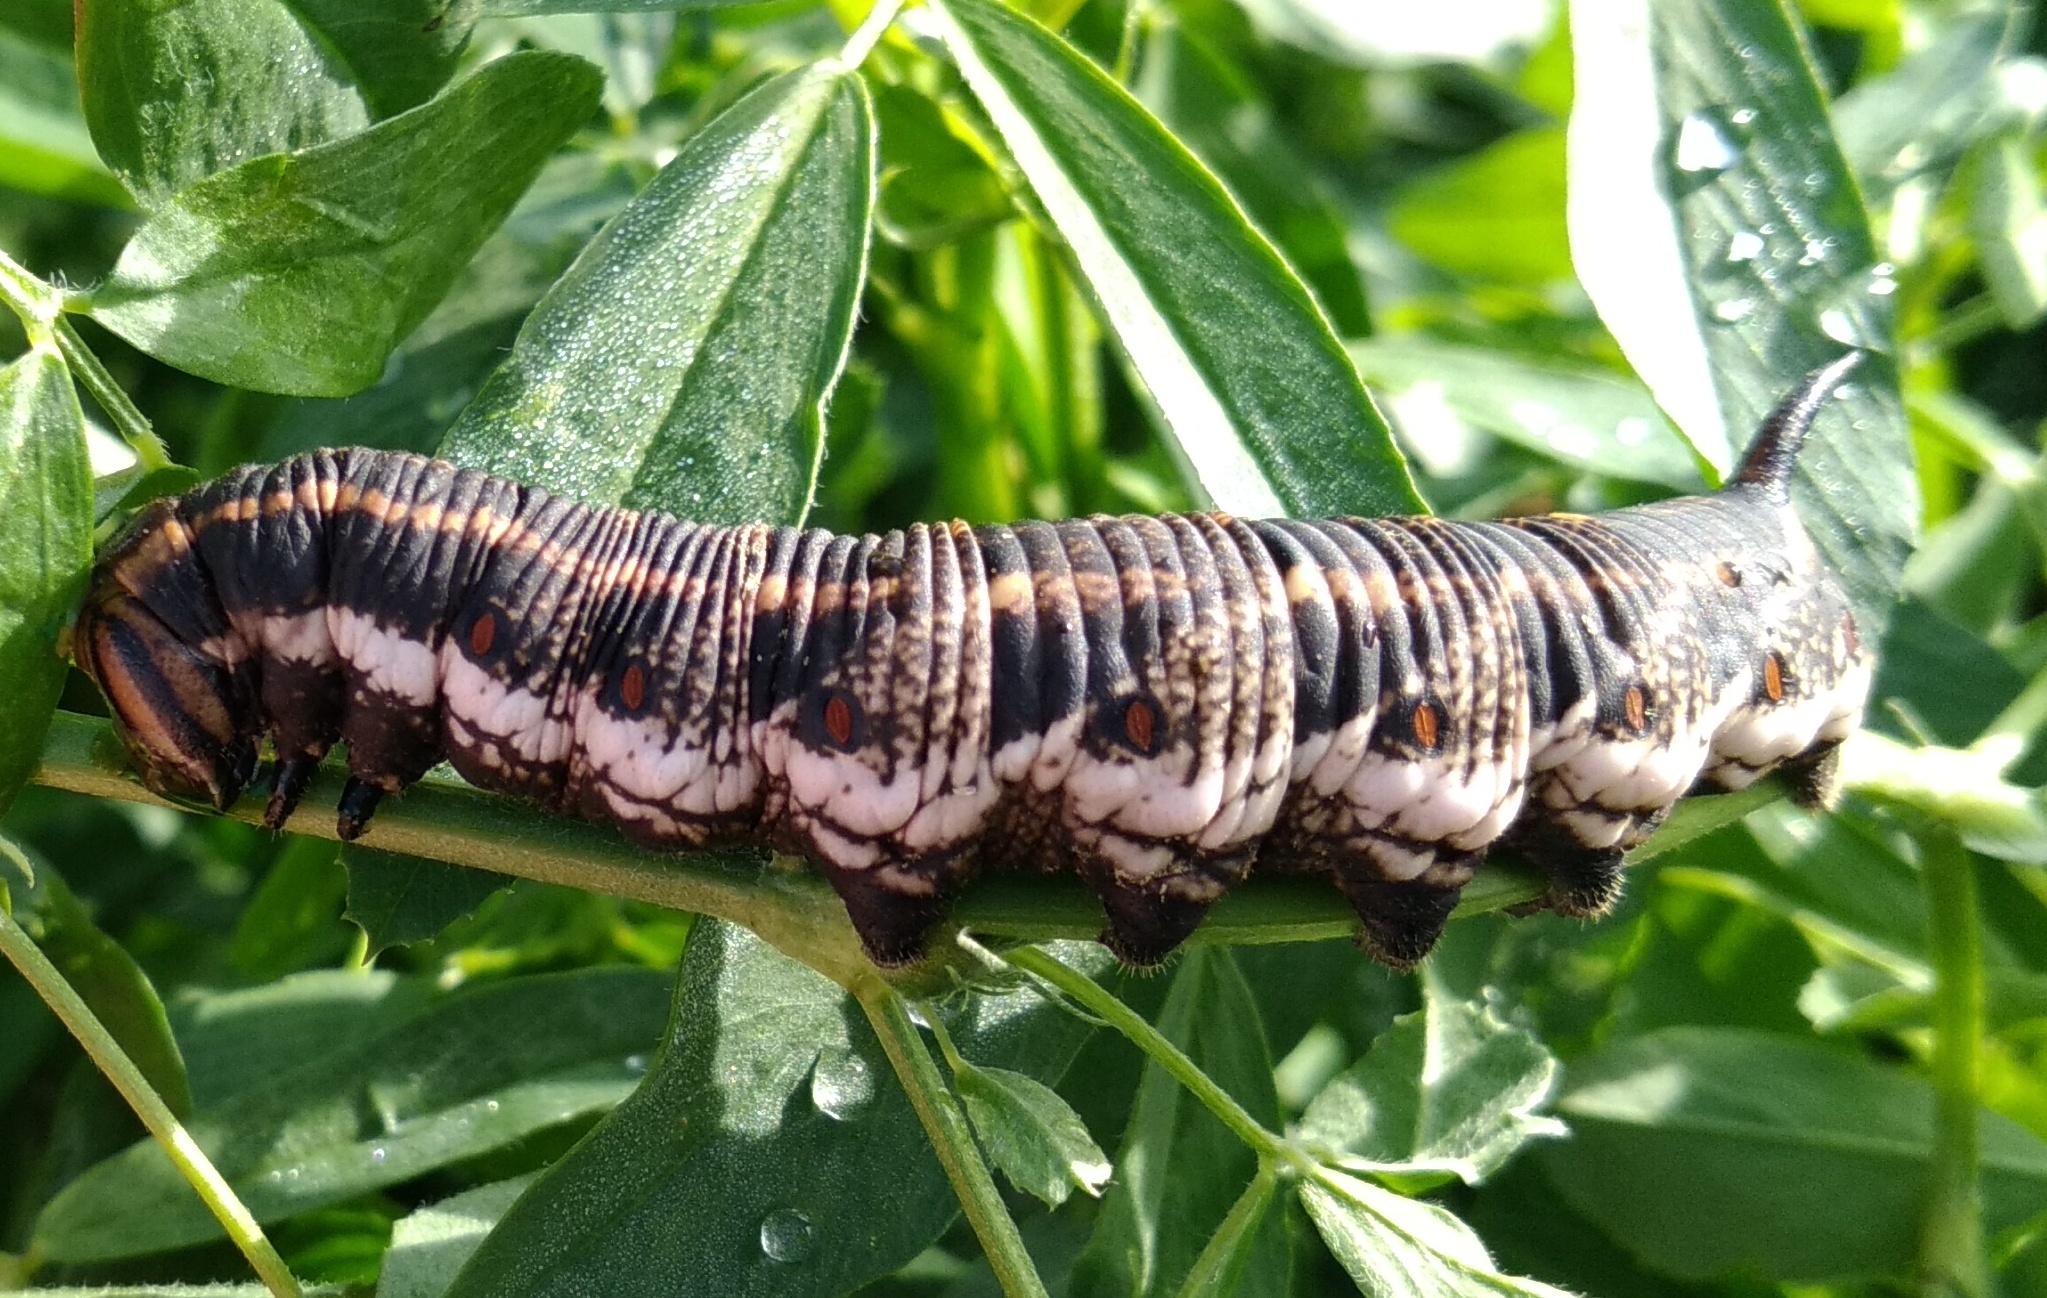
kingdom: Animalia
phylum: Arthropoda
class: Insecta
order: Lepidoptera
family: Sphingidae
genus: Agrius
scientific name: Agrius convolvuli
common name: Convolvulus hawkmoth
